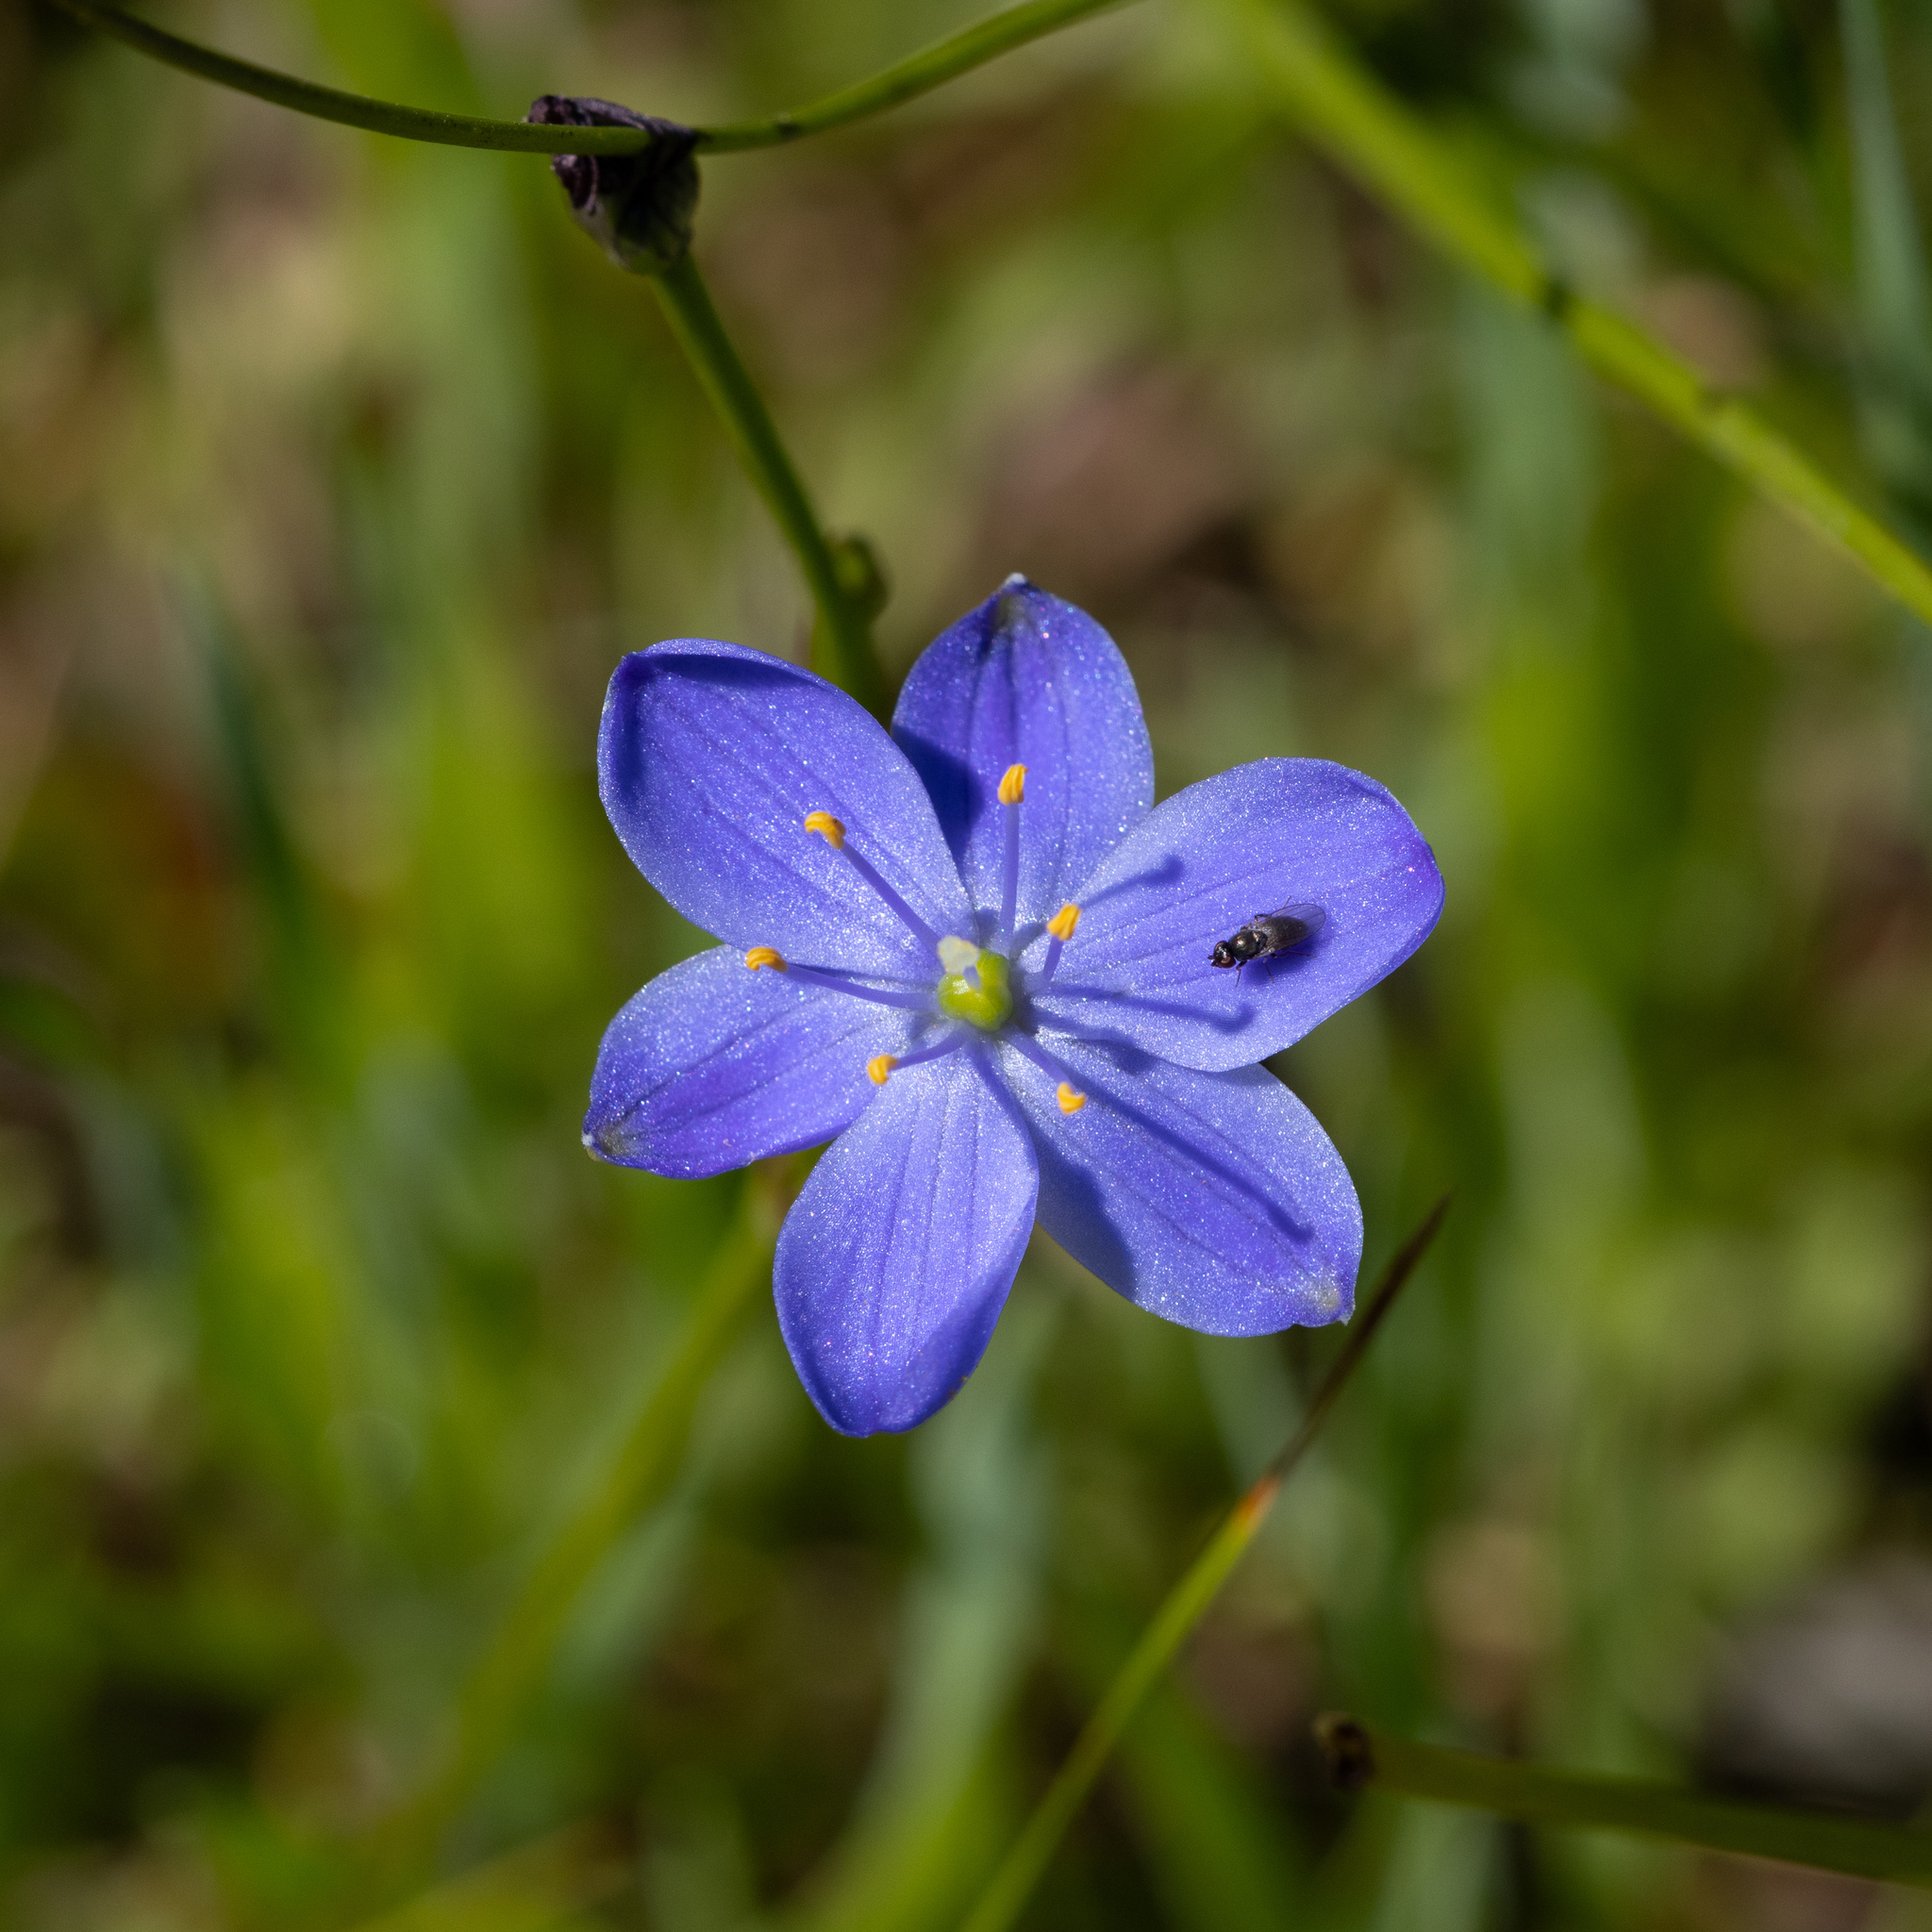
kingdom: Plantae
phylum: Tracheophyta
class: Liliopsida
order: Asparagales
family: Asphodelaceae
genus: Chamaescilla
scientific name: Chamaescilla corymbosa
